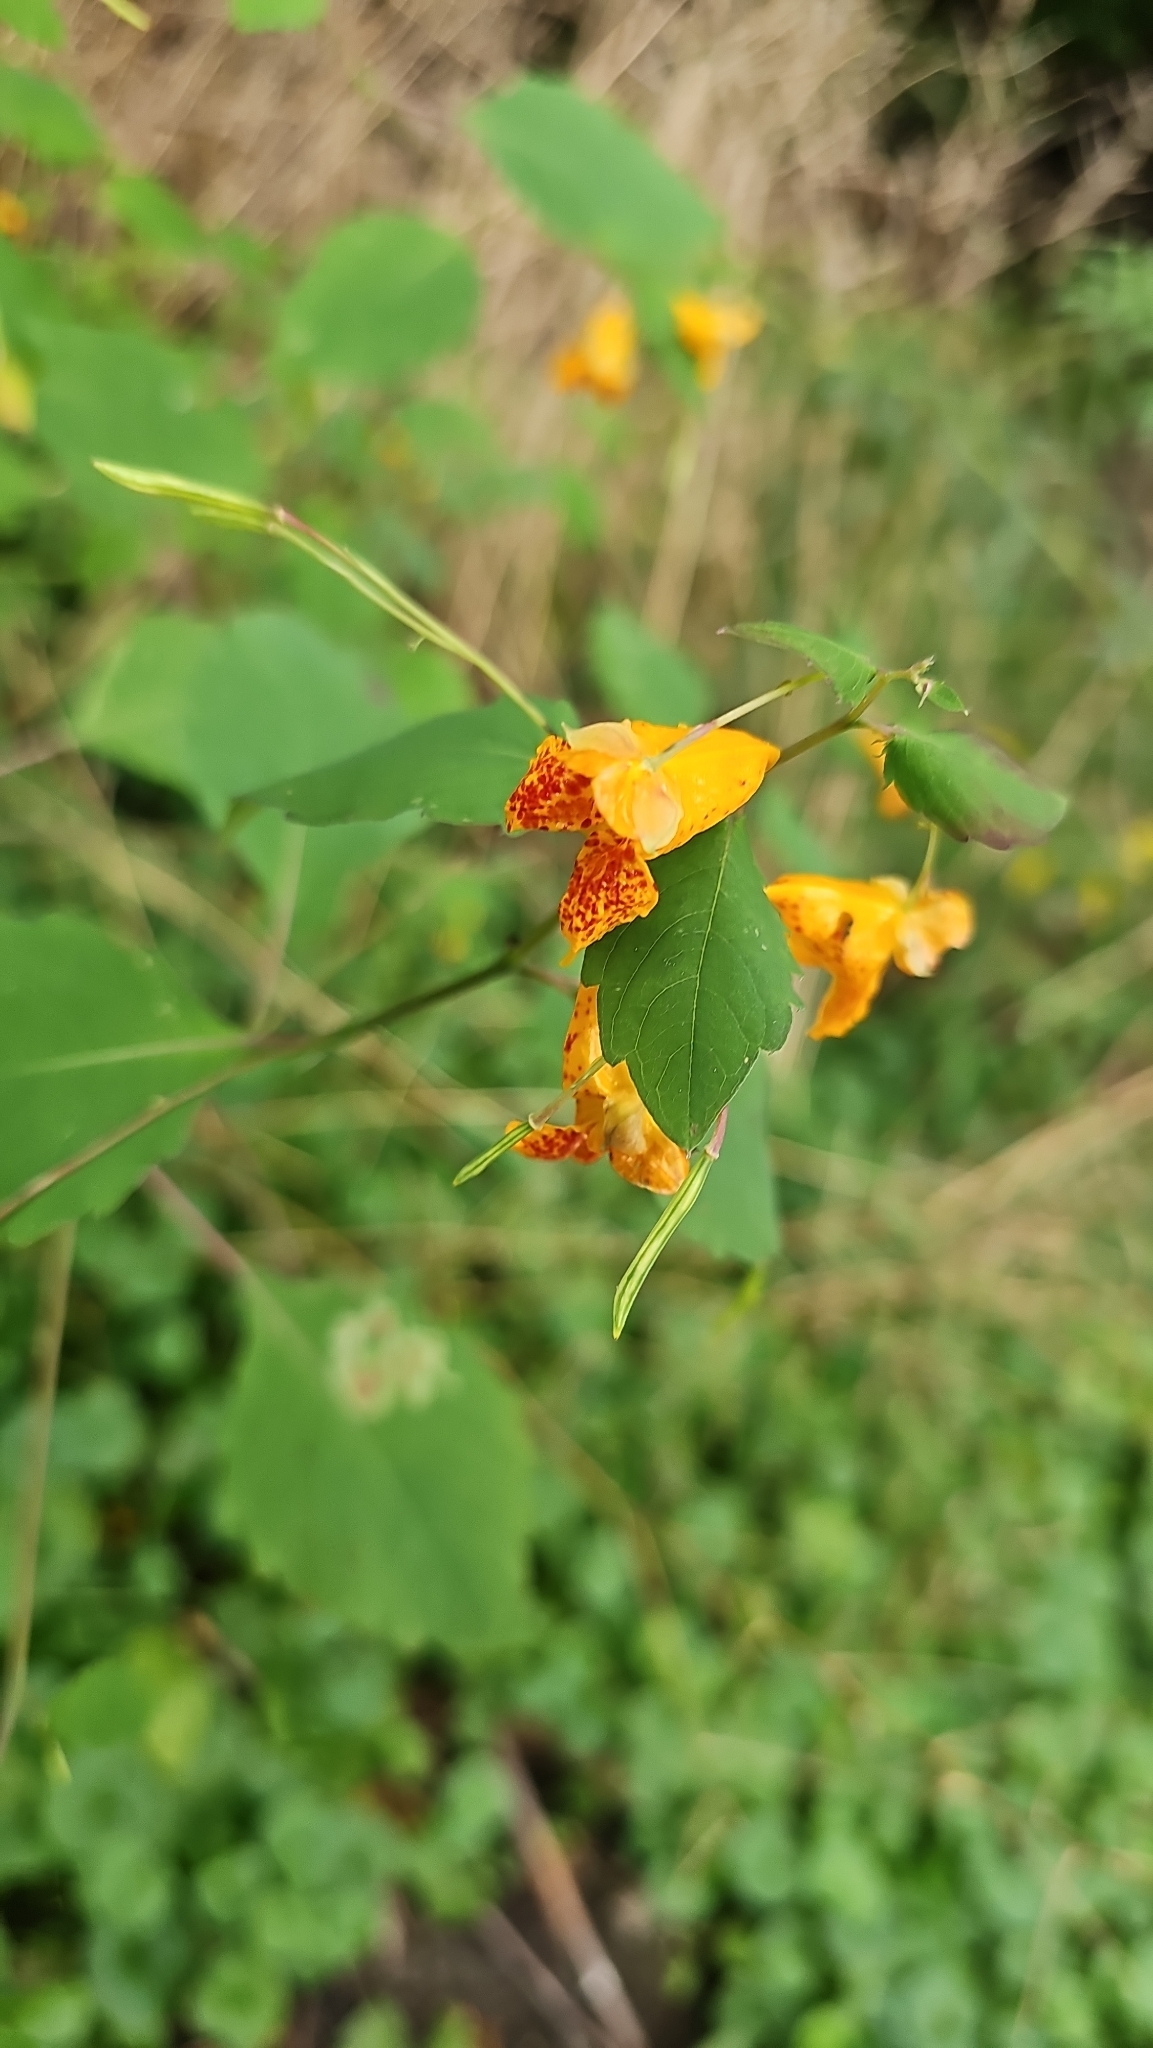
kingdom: Plantae
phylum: Tracheophyta
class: Magnoliopsida
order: Ericales
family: Balsaminaceae
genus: Impatiens
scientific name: Impatiens capensis
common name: Orange balsam
